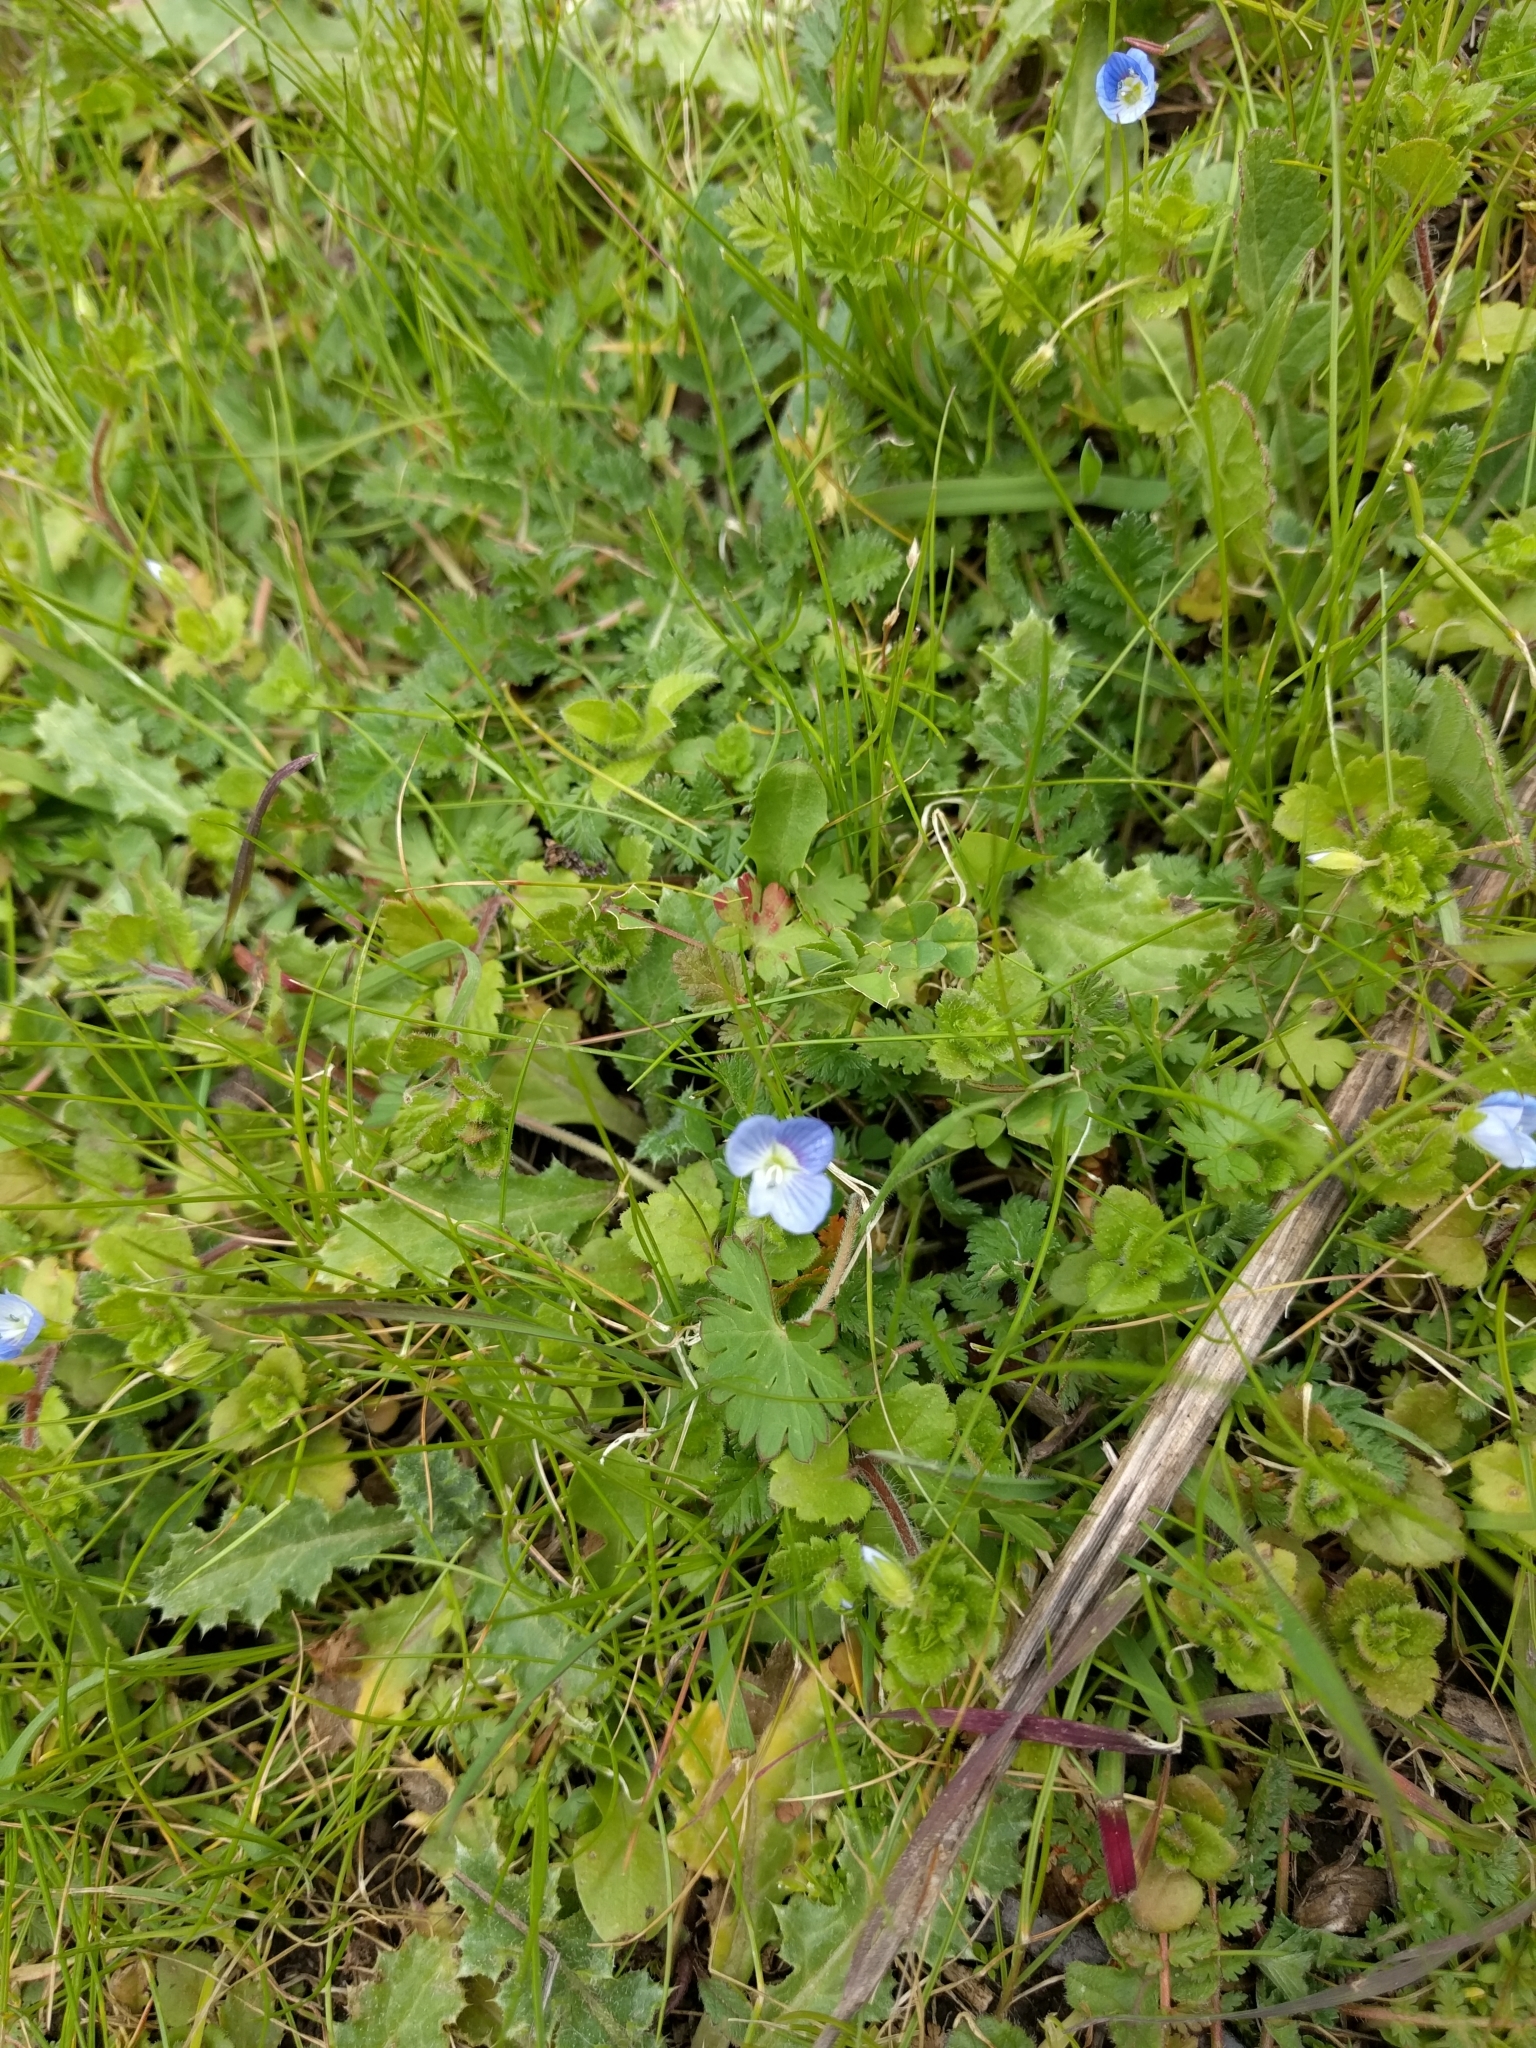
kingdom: Plantae
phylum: Tracheophyta
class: Magnoliopsida
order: Lamiales
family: Plantaginaceae
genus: Veronica
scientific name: Veronica persica
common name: Common field-speedwell
